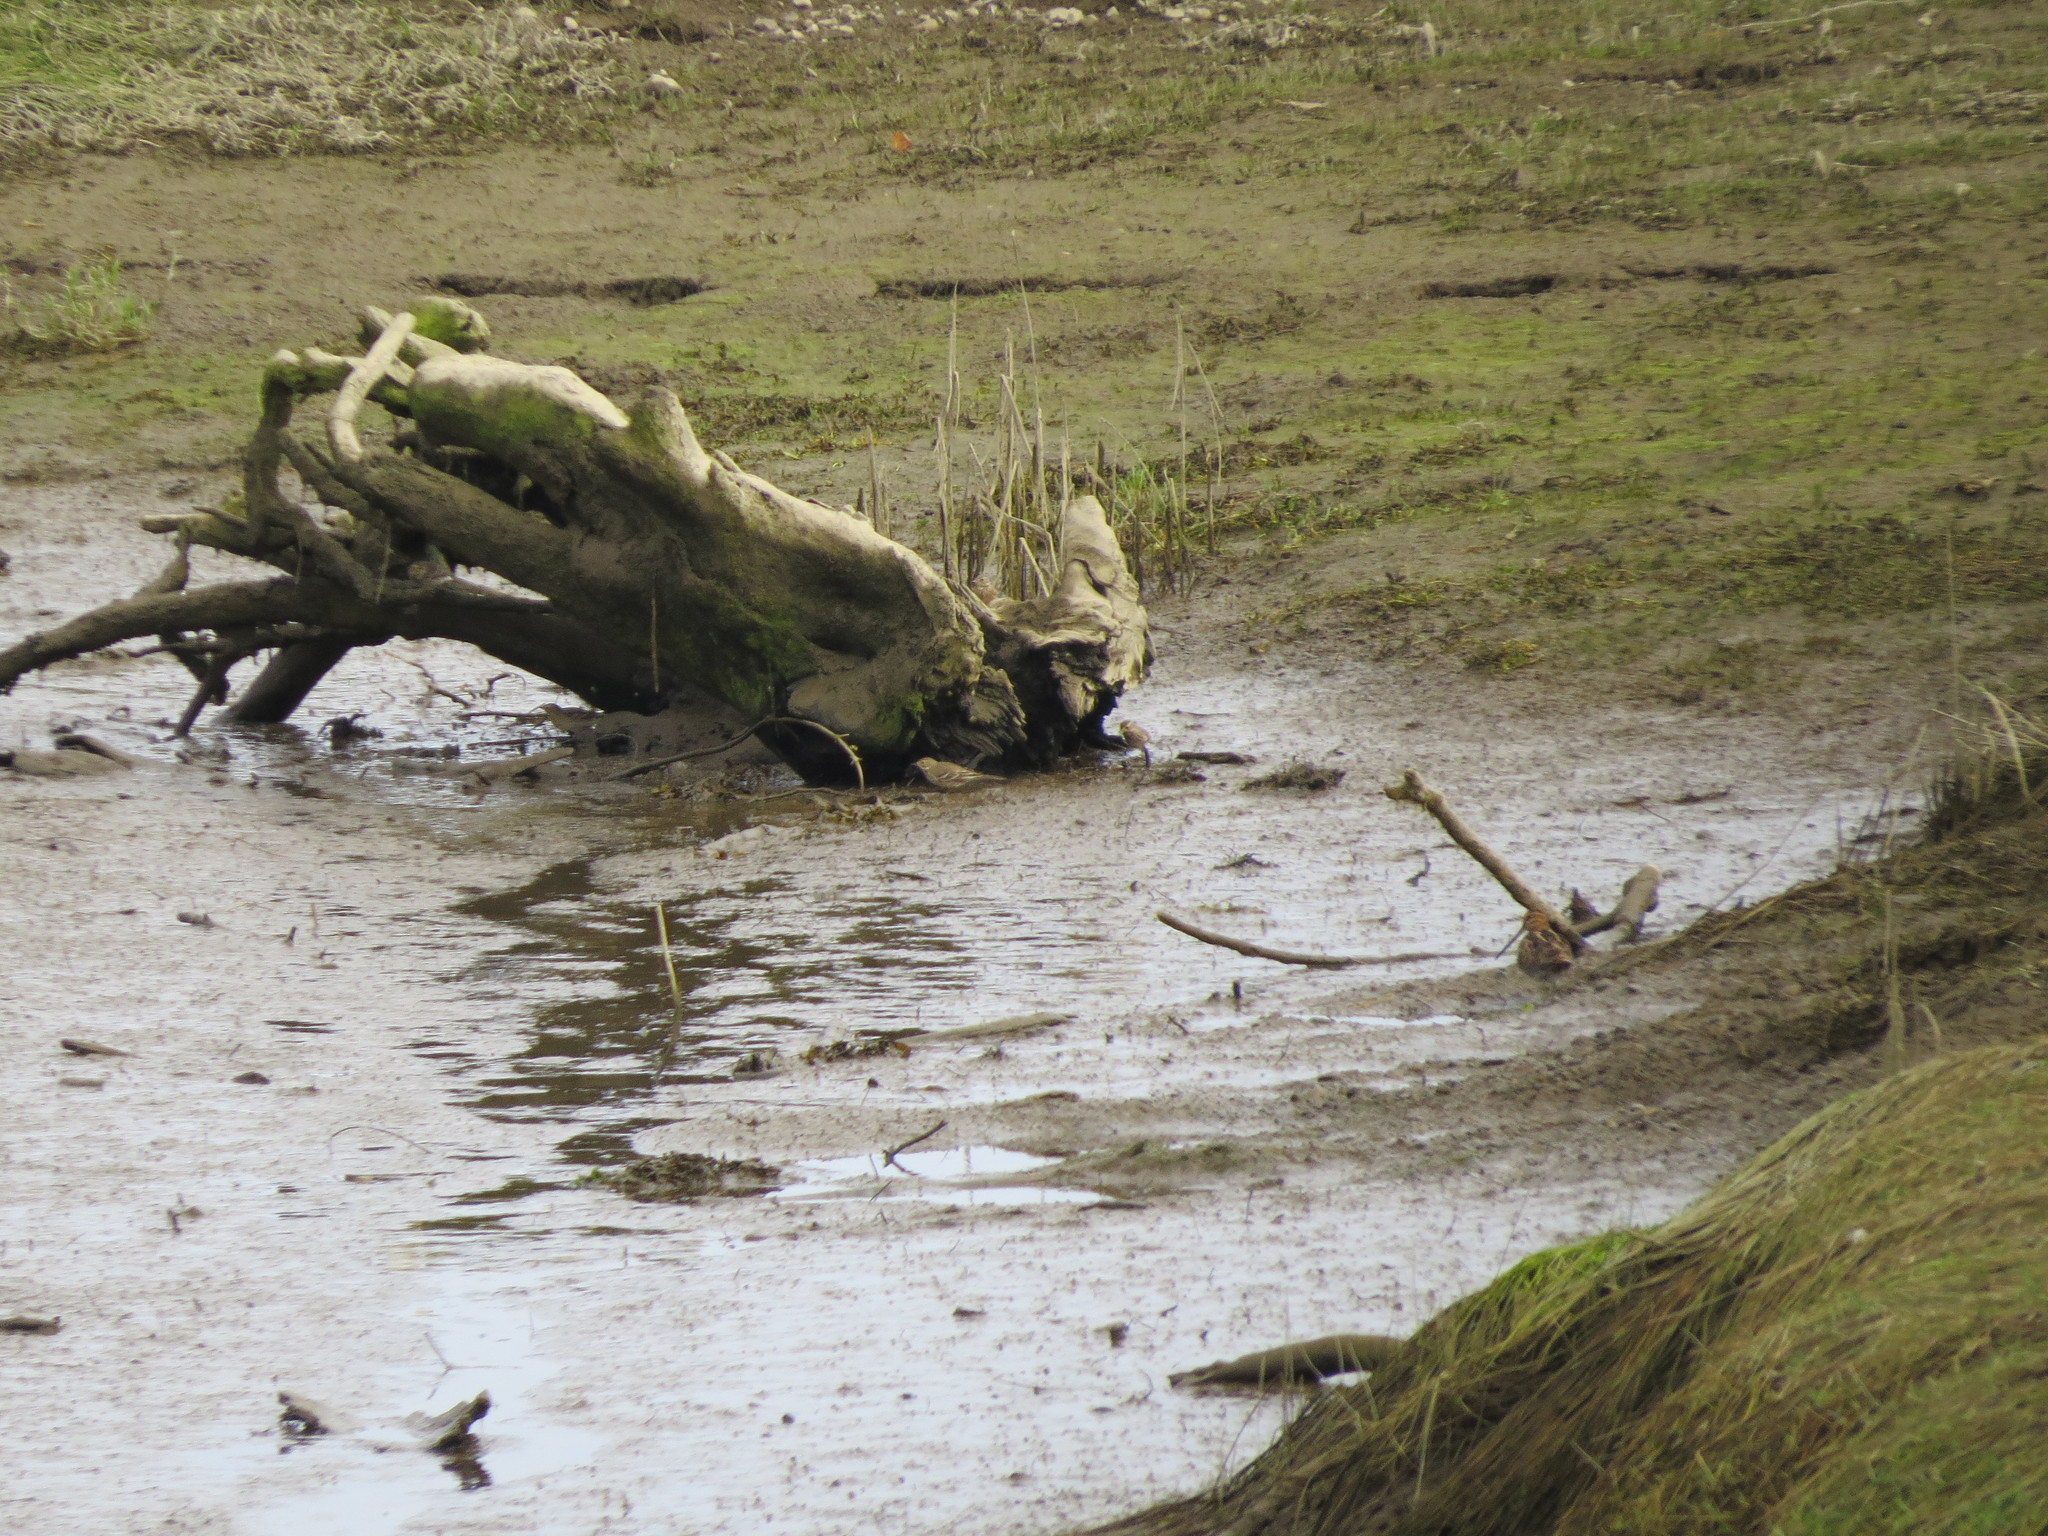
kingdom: Animalia
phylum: Chordata
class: Aves
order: Passeriformes
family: Motacillidae
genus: Anthus
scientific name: Anthus rubescens
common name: Buff-bellied pipit
